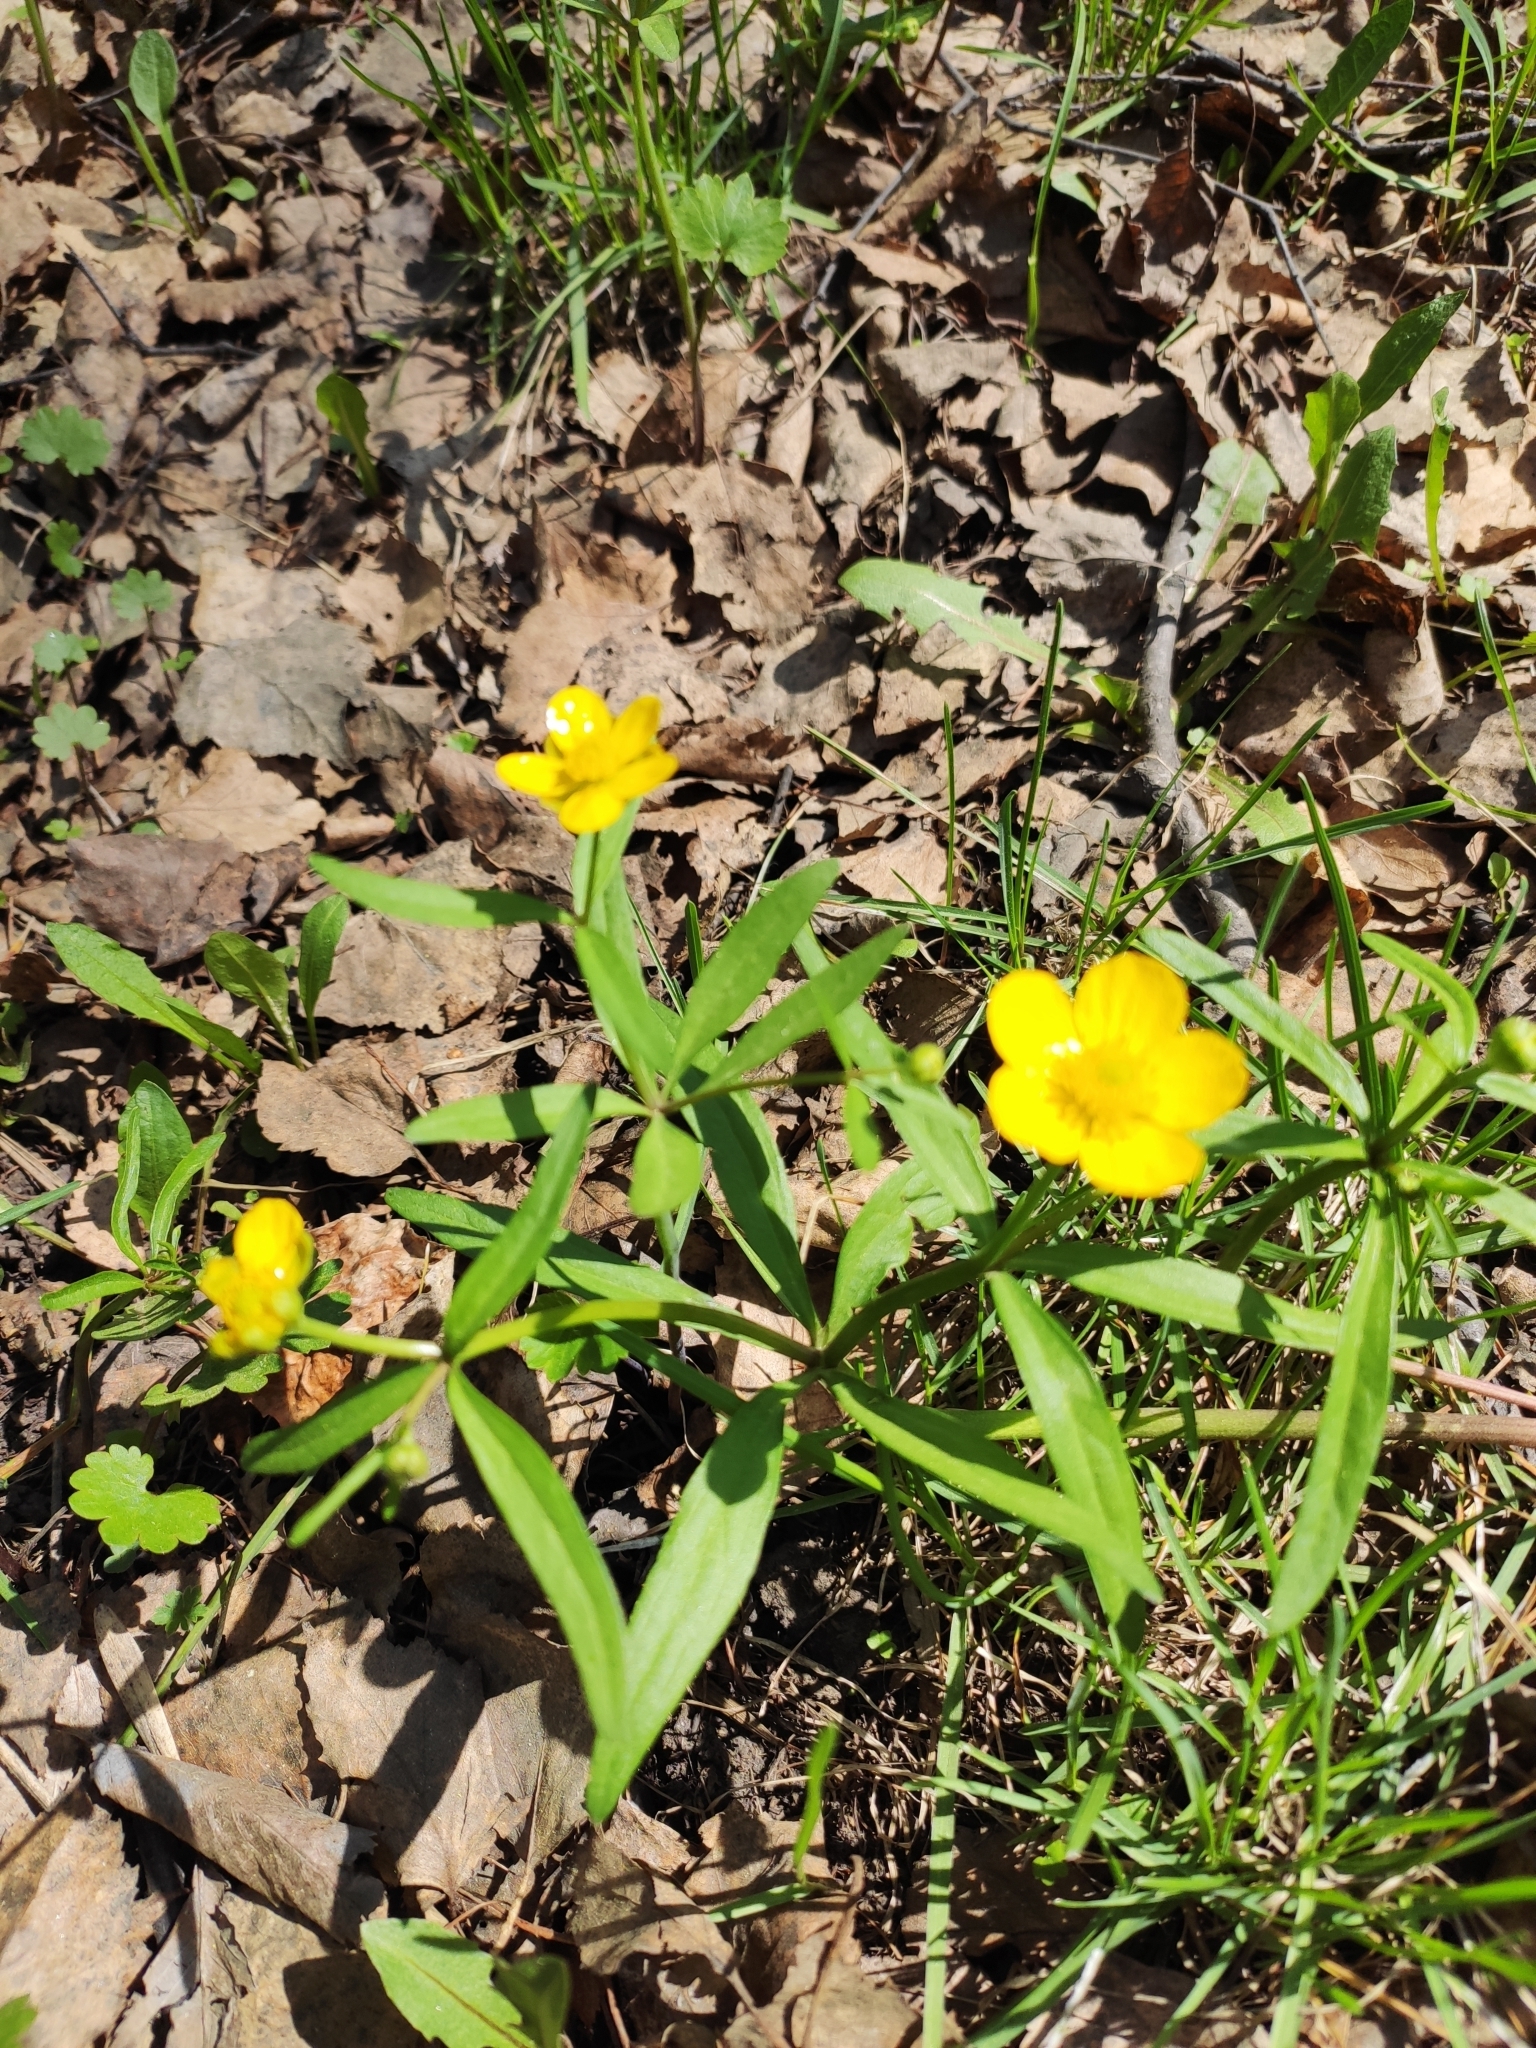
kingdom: Plantae
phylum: Tracheophyta
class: Magnoliopsida
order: Ranunculales
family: Ranunculaceae
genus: Ranunculus
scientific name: Ranunculus monophyllus
